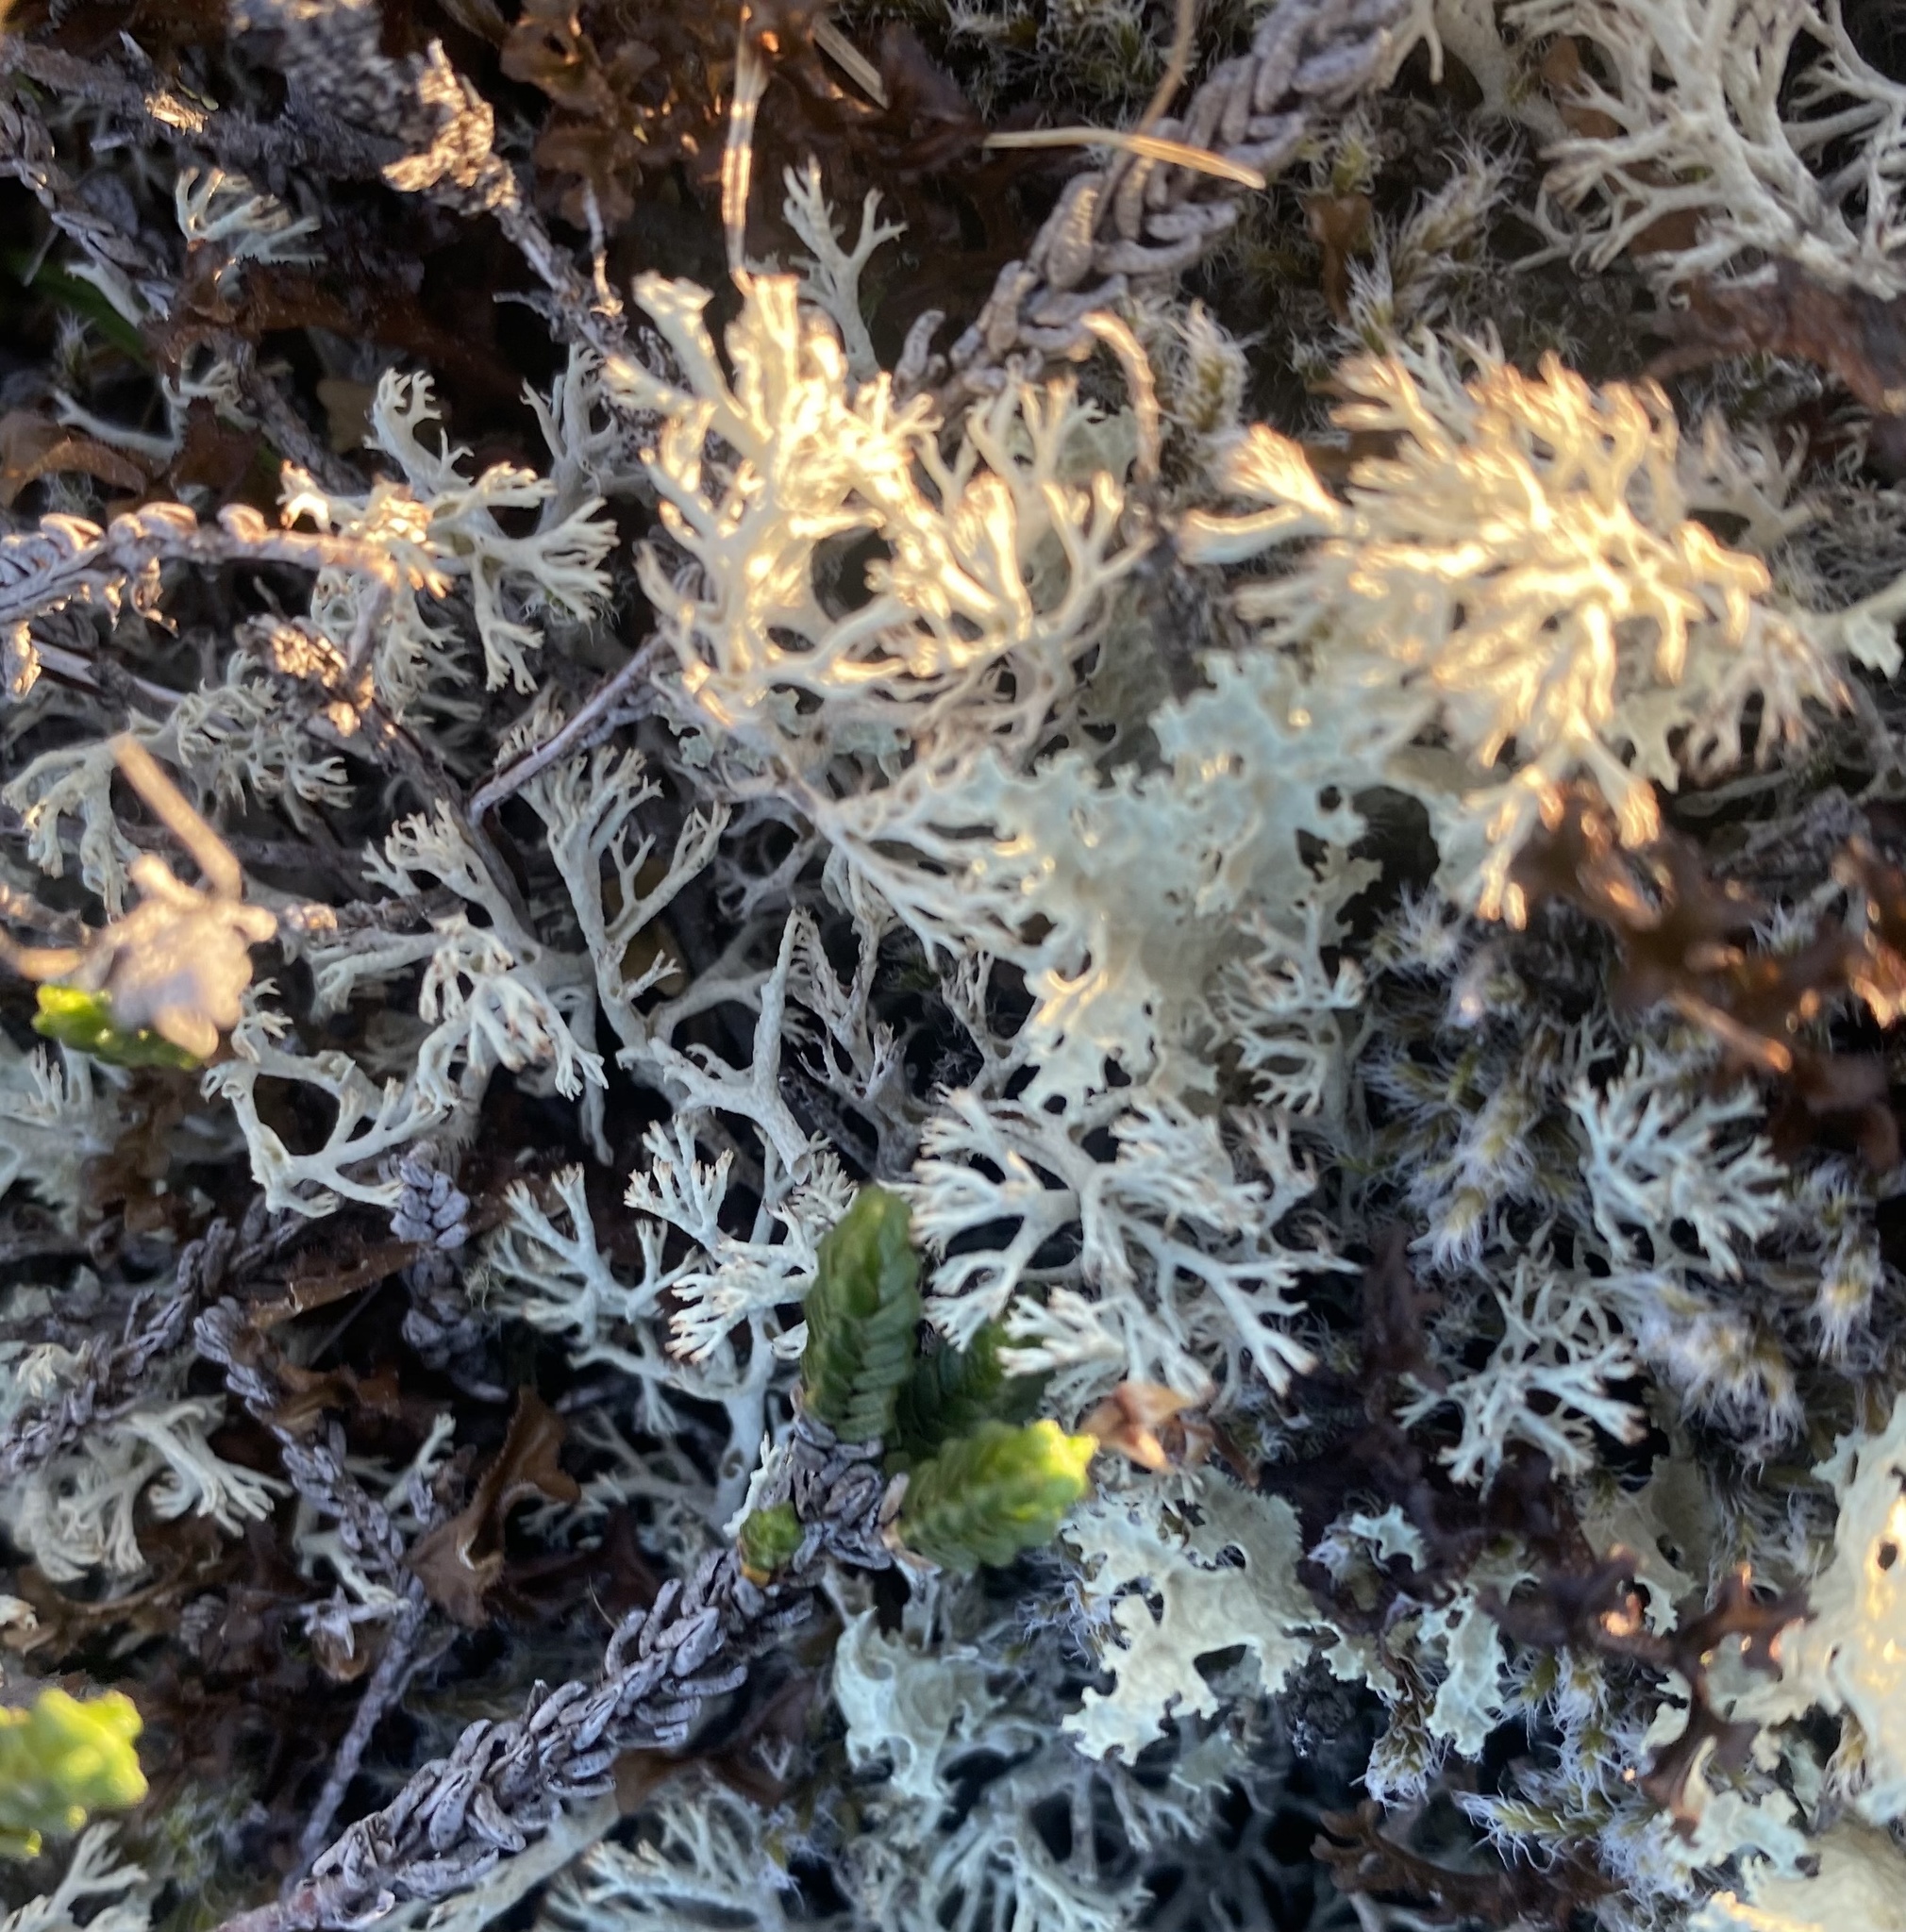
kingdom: Fungi
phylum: Ascomycota
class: Lecanoromycetes
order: Lecanorales
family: Cladoniaceae
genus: Cladonia
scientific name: Cladonia
